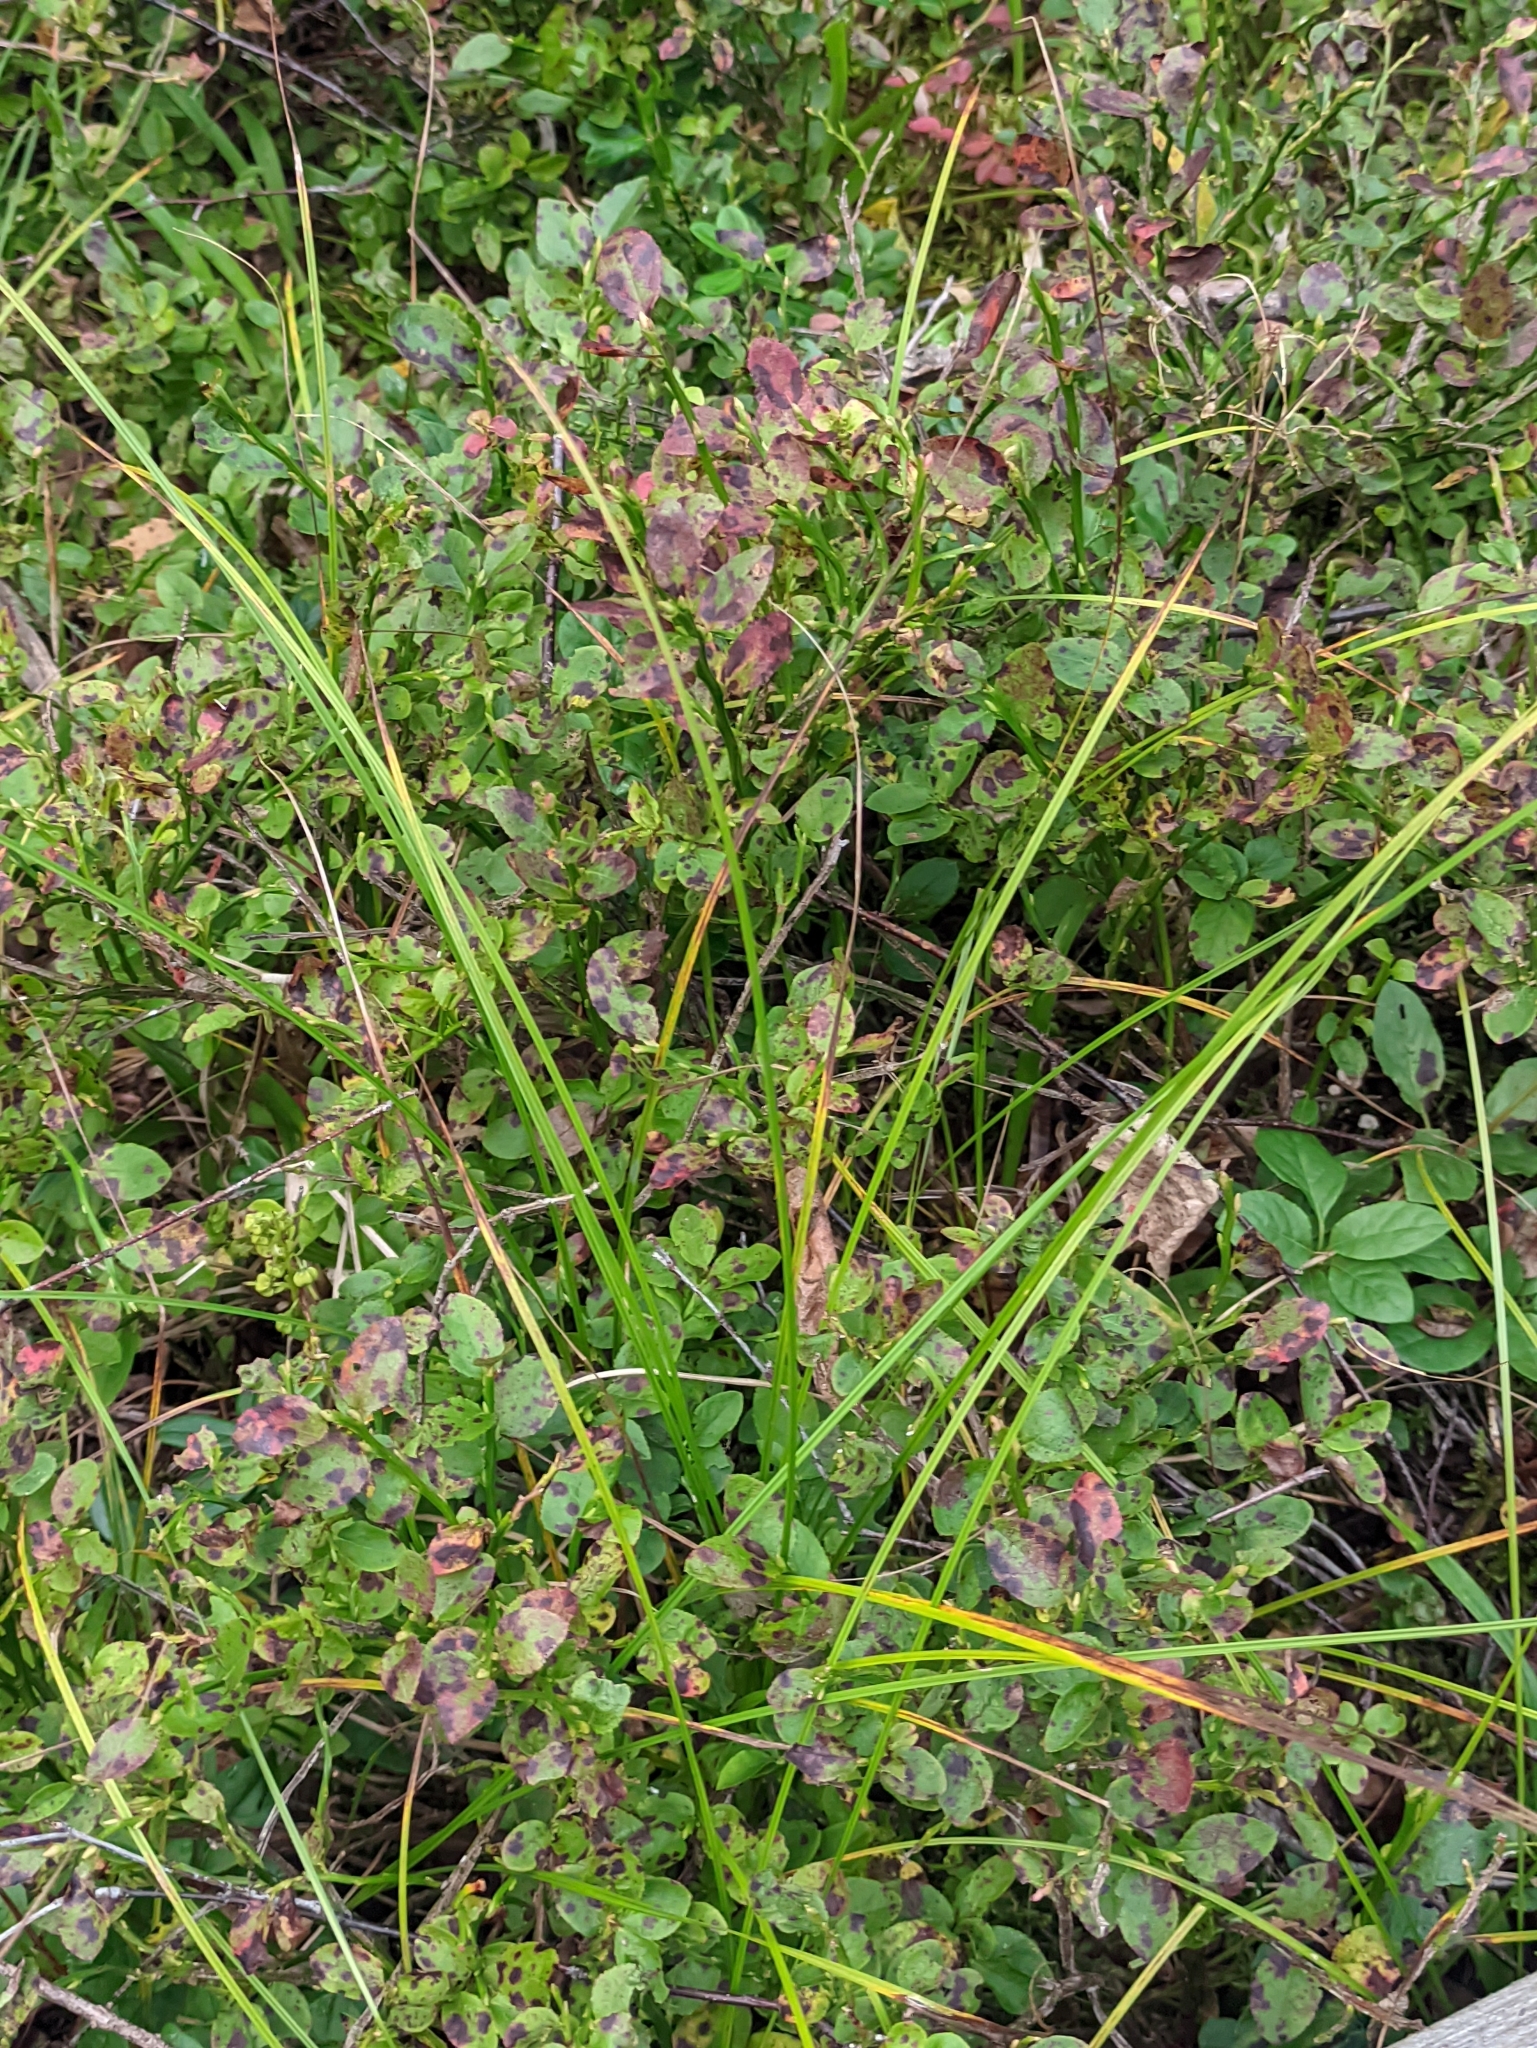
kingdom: Plantae
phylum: Tracheophyta
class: Magnoliopsida
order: Ericales
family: Ericaceae
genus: Vaccinium
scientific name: Vaccinium myrtillus
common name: Bilberry
